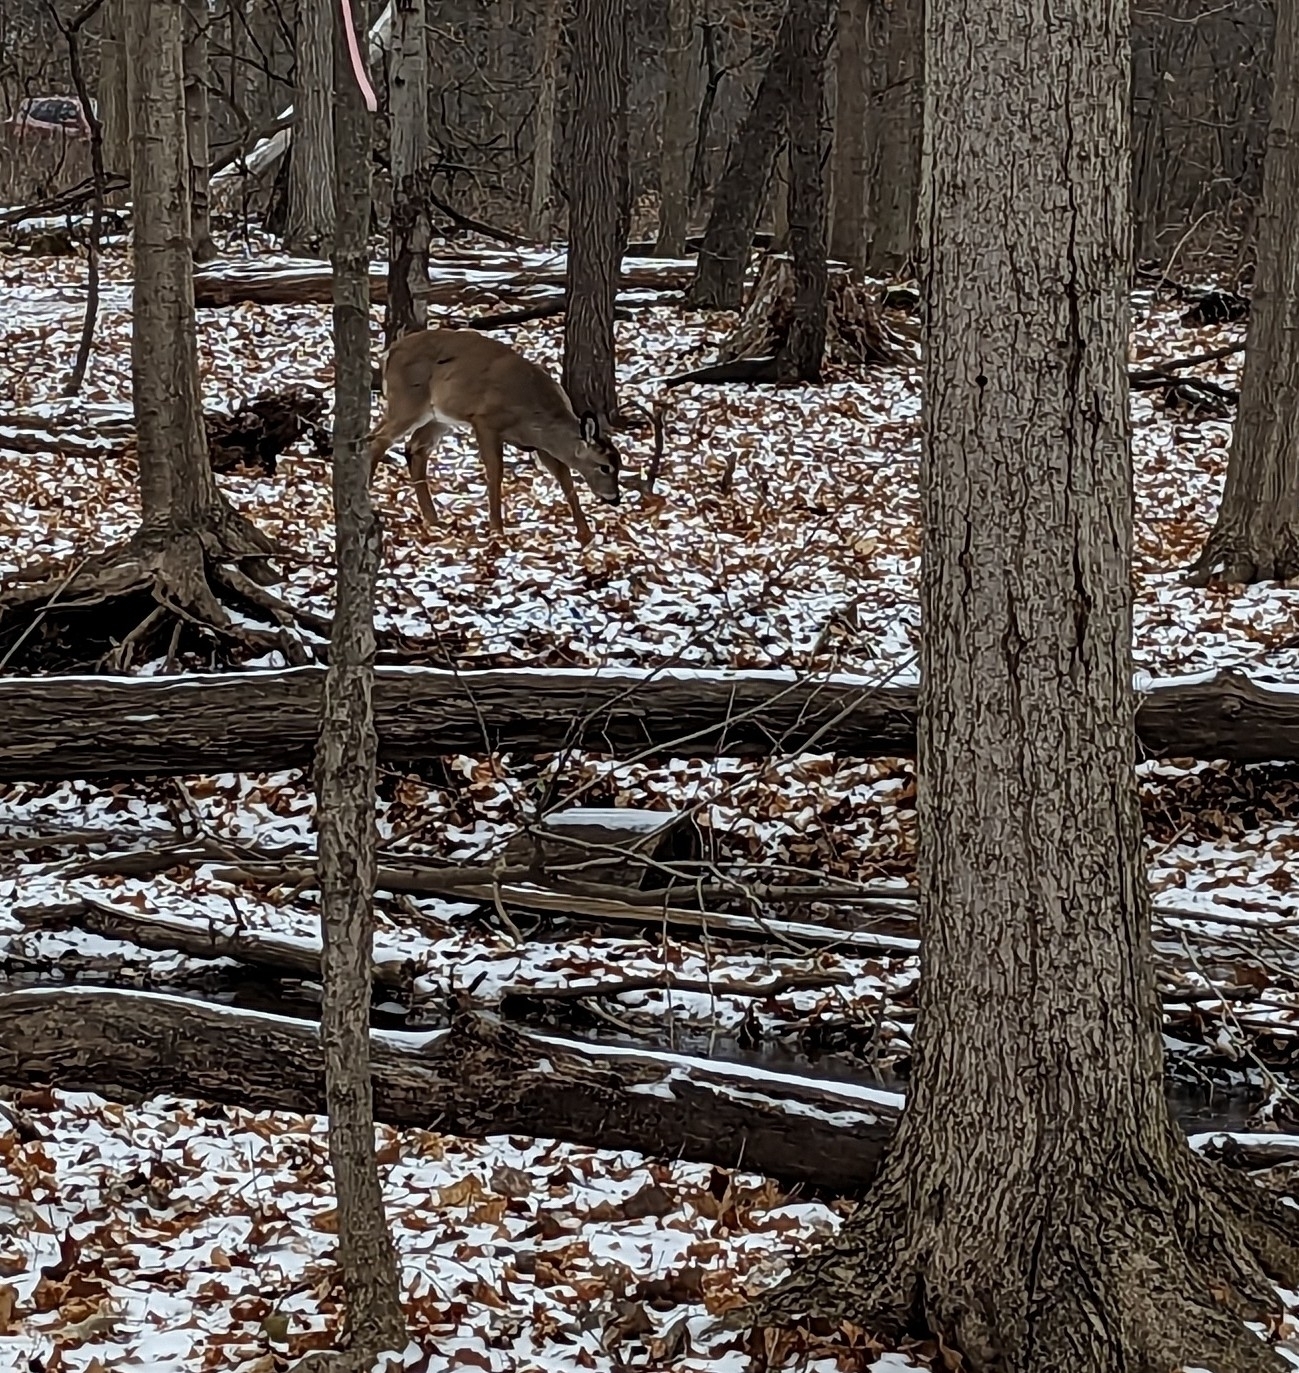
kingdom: Animalia
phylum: Chordata
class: Mammalia
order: Artiodactyla
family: Cervidae
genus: Odocoileus
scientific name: Odocoileus virginianus
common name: White-tailed deer
